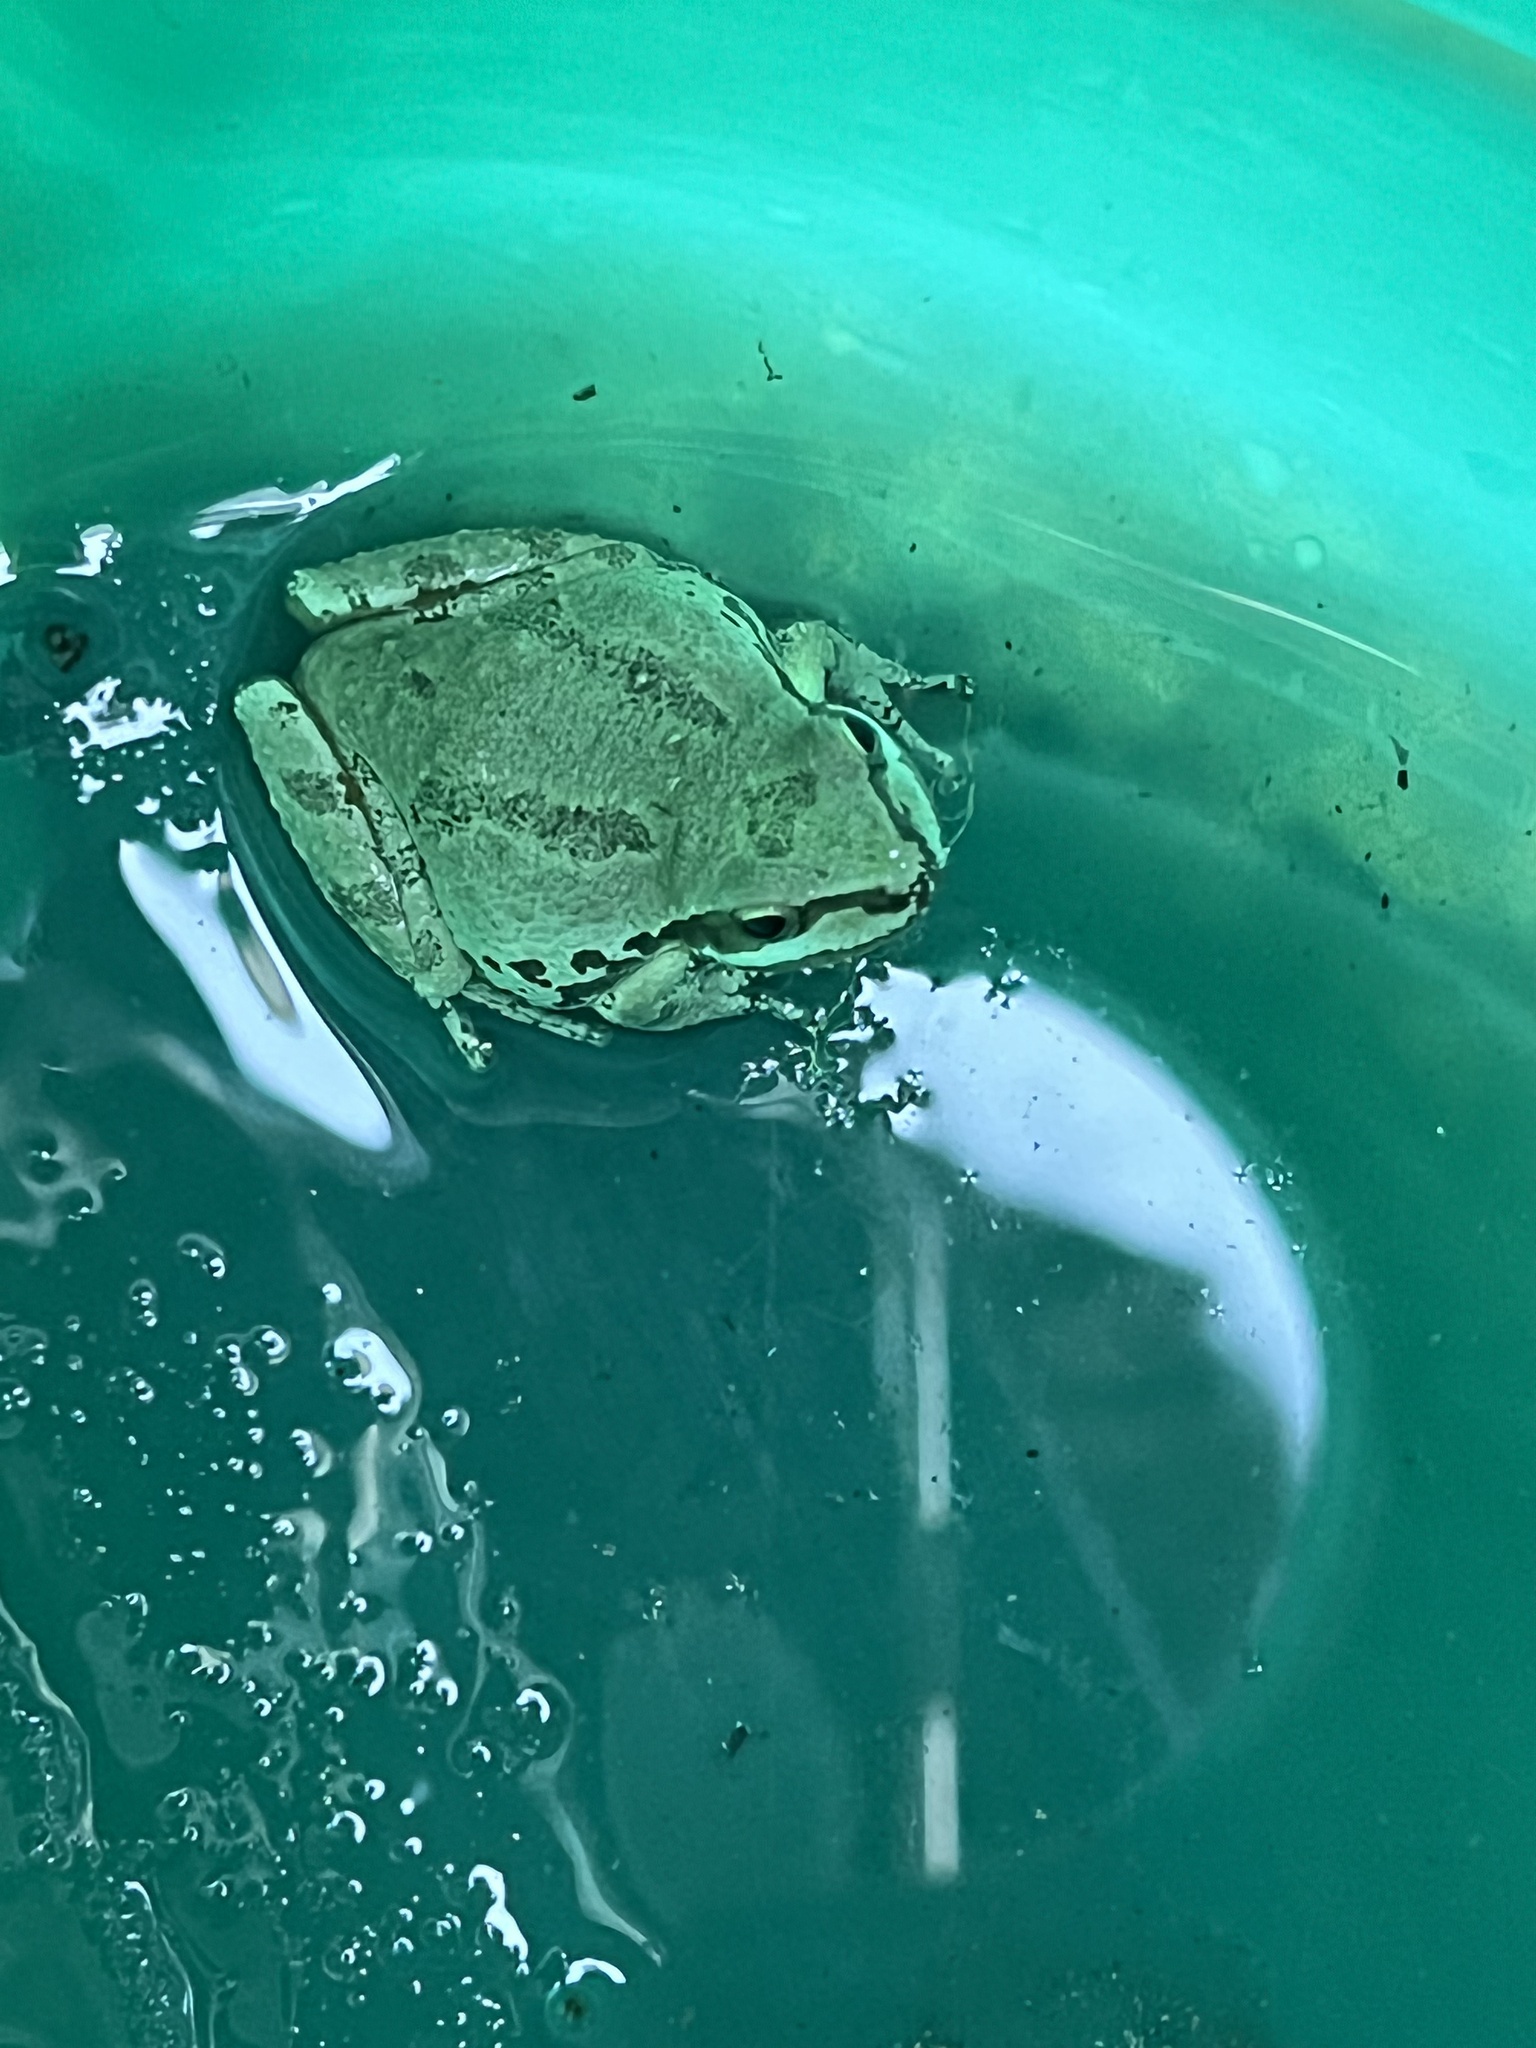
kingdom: Animalia
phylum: Chordata
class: Amphibia
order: Anura
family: Hylidae
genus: Pseudacris
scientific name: Pseudacris regilla
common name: Pacific chorus frog
